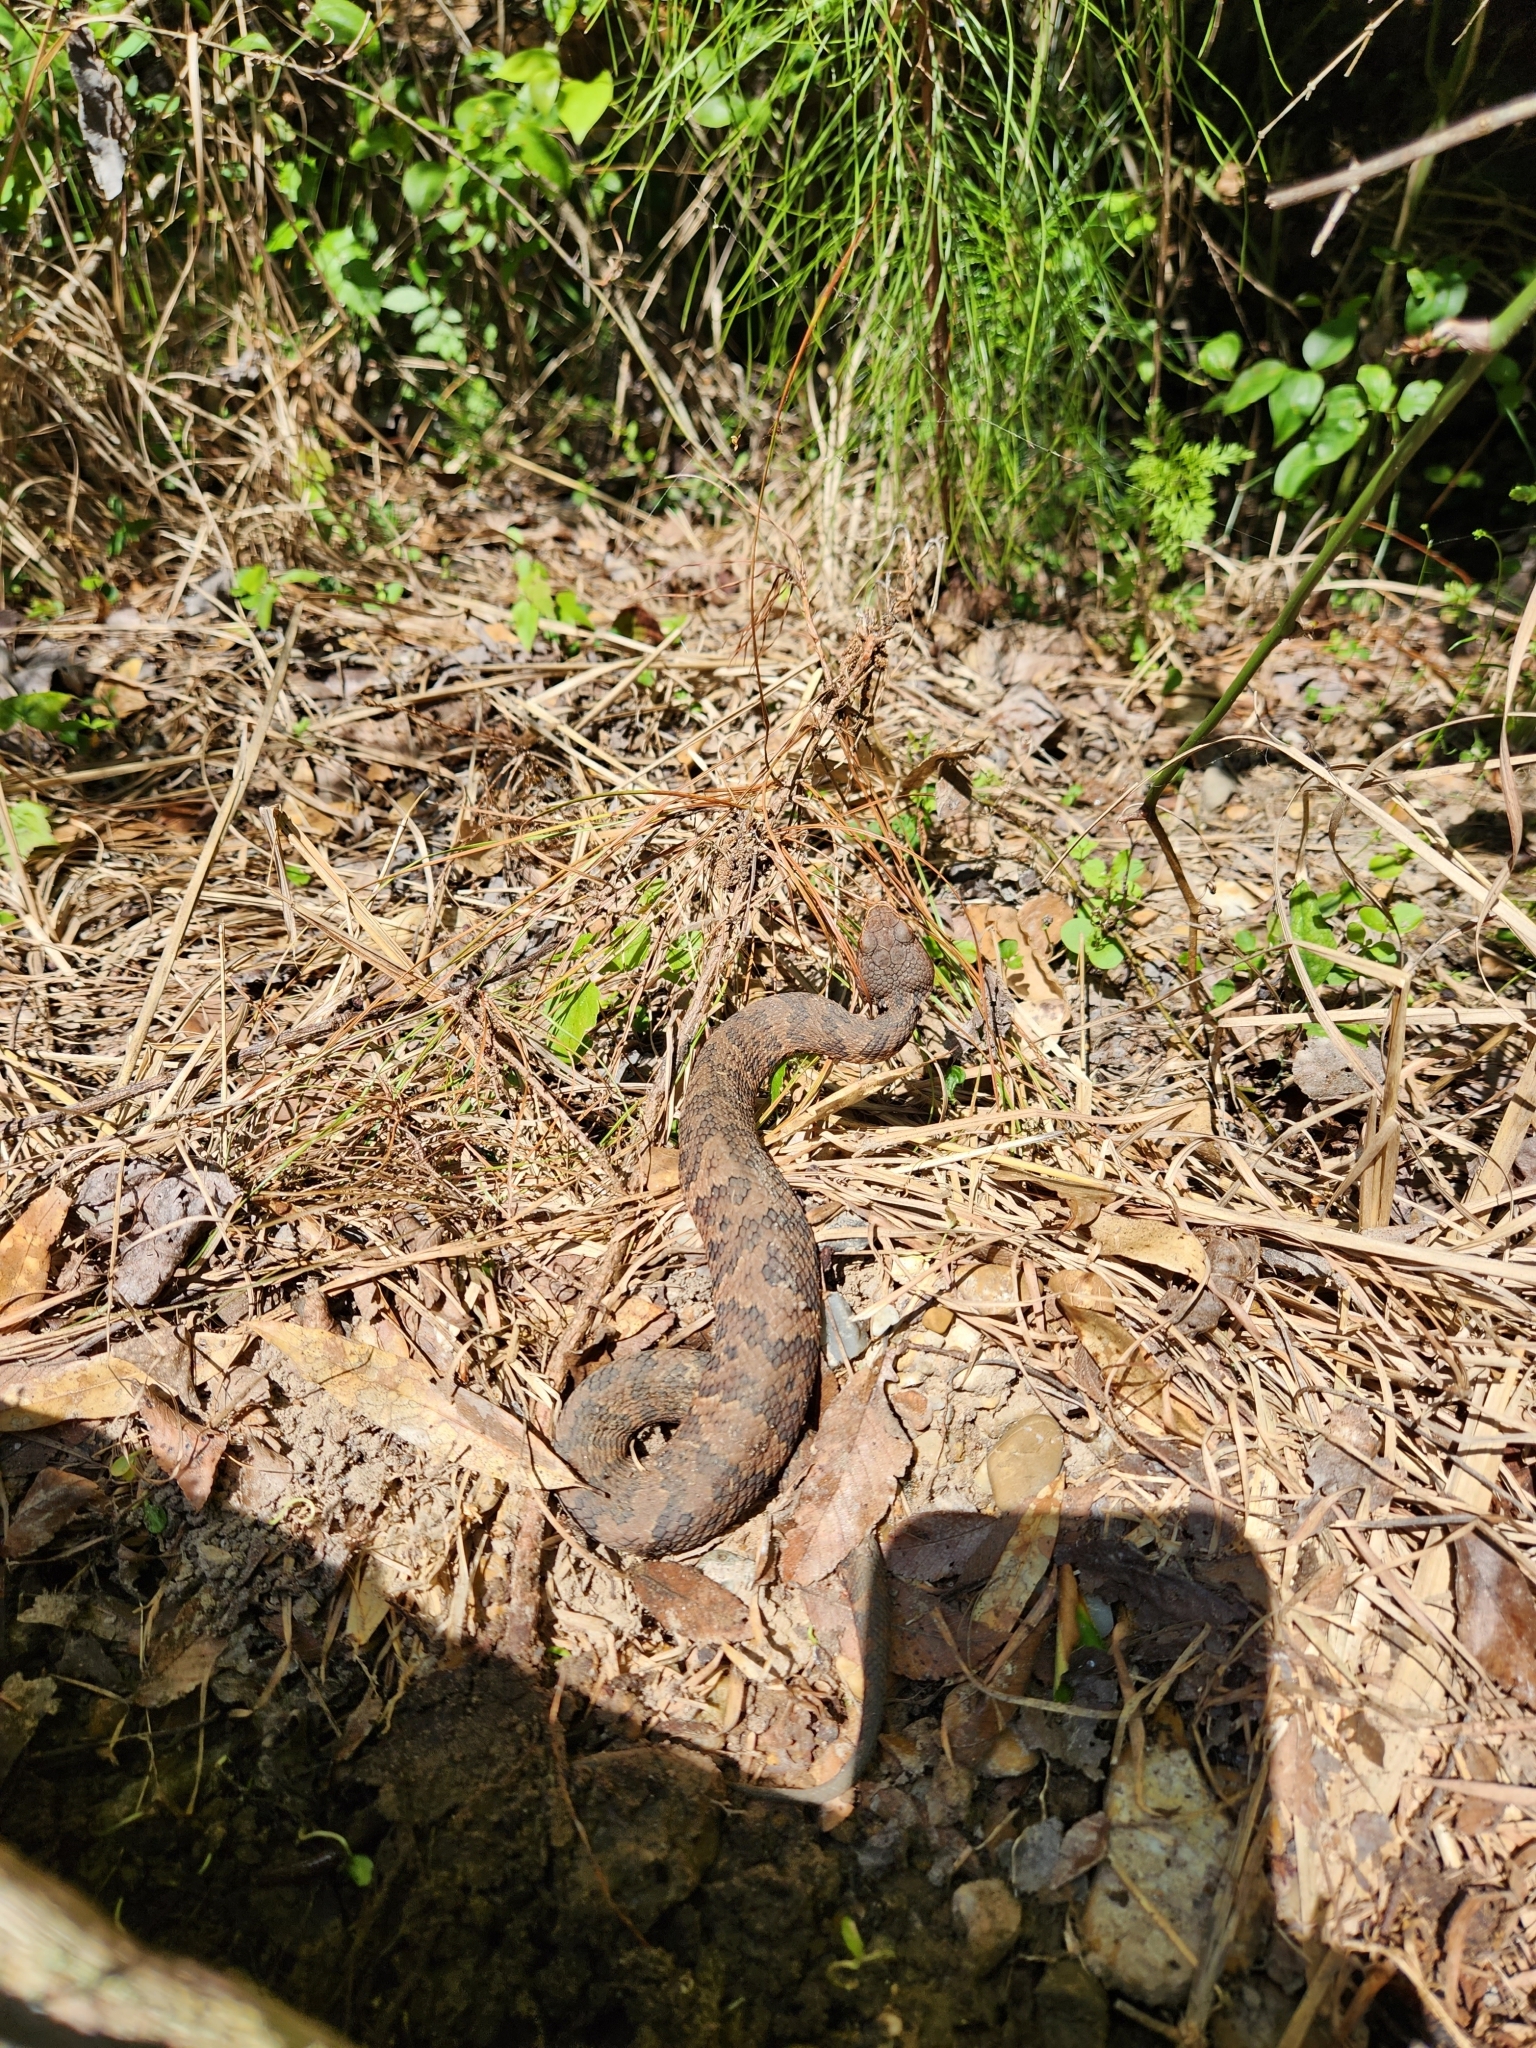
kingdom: Animalia
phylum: Chordata
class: Squamata
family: Viperidae
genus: Agkistrodon
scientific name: Agkistrodon piscivorus
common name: Cottonmouth
